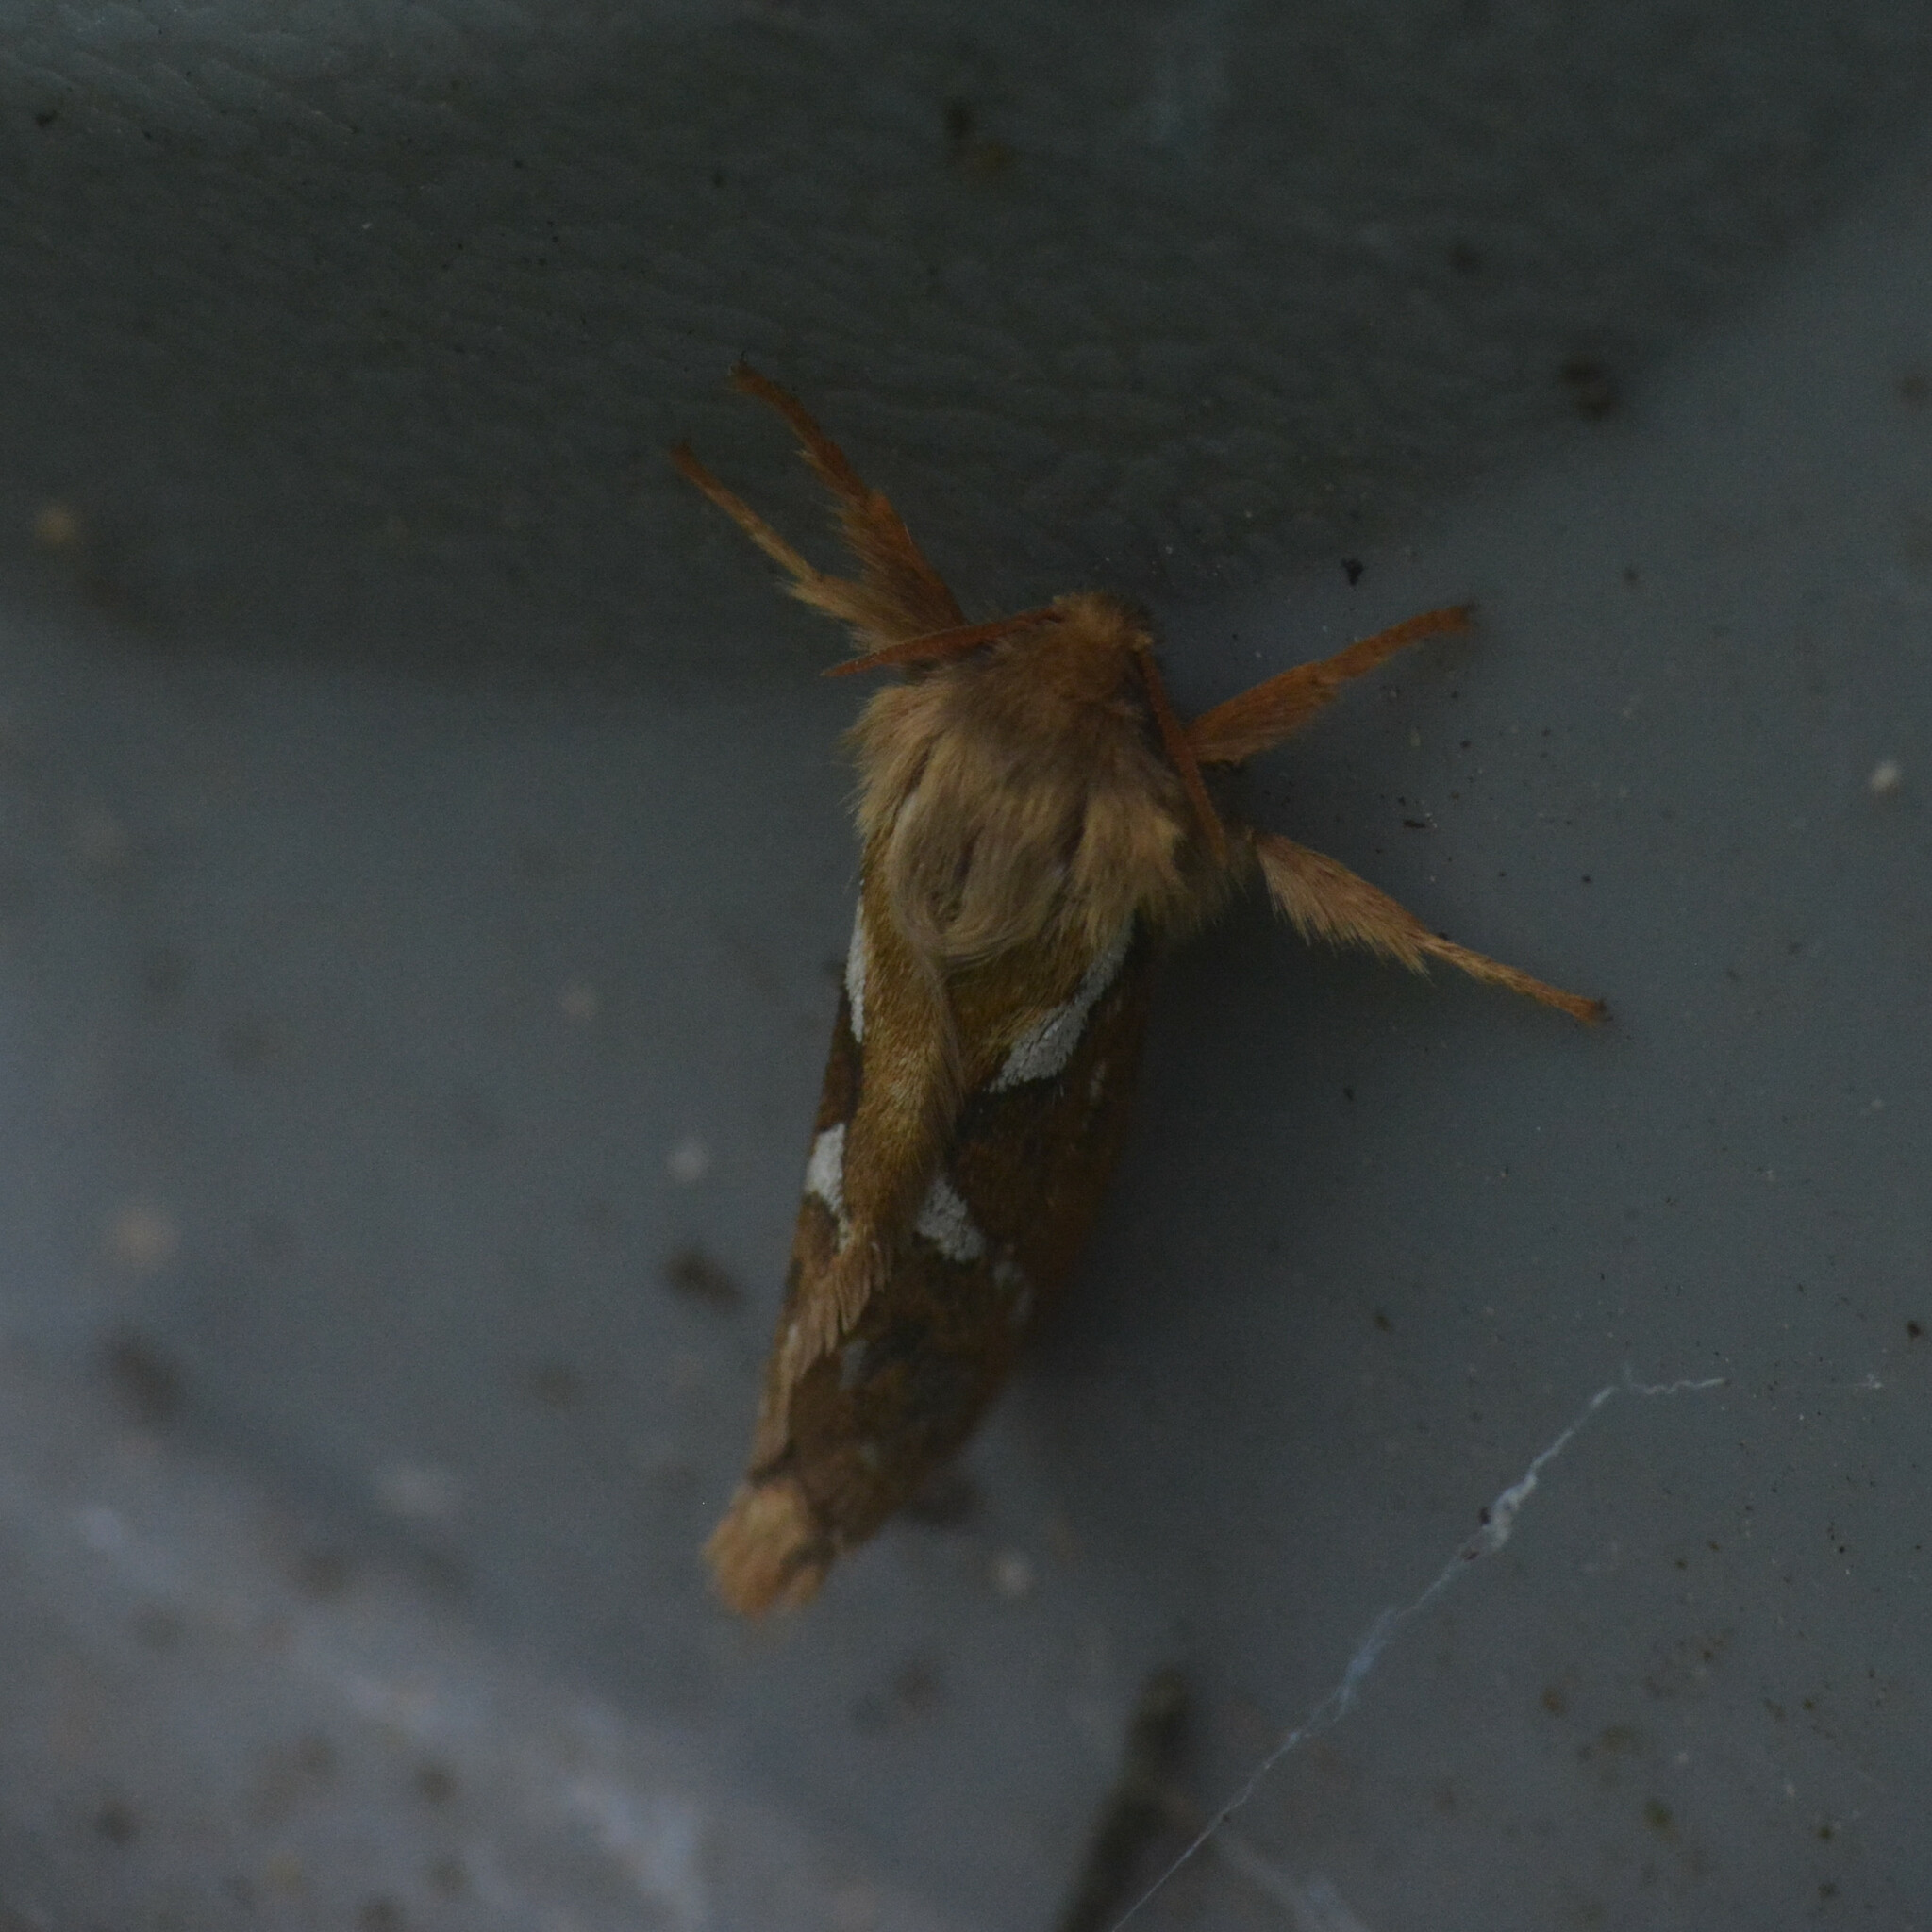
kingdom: Animalia
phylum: Arthropoda
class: Insecta
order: Lepidoptera
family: Hepialidae
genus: Korscheltellus
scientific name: Korscheltellus lupulina
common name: Common swift
